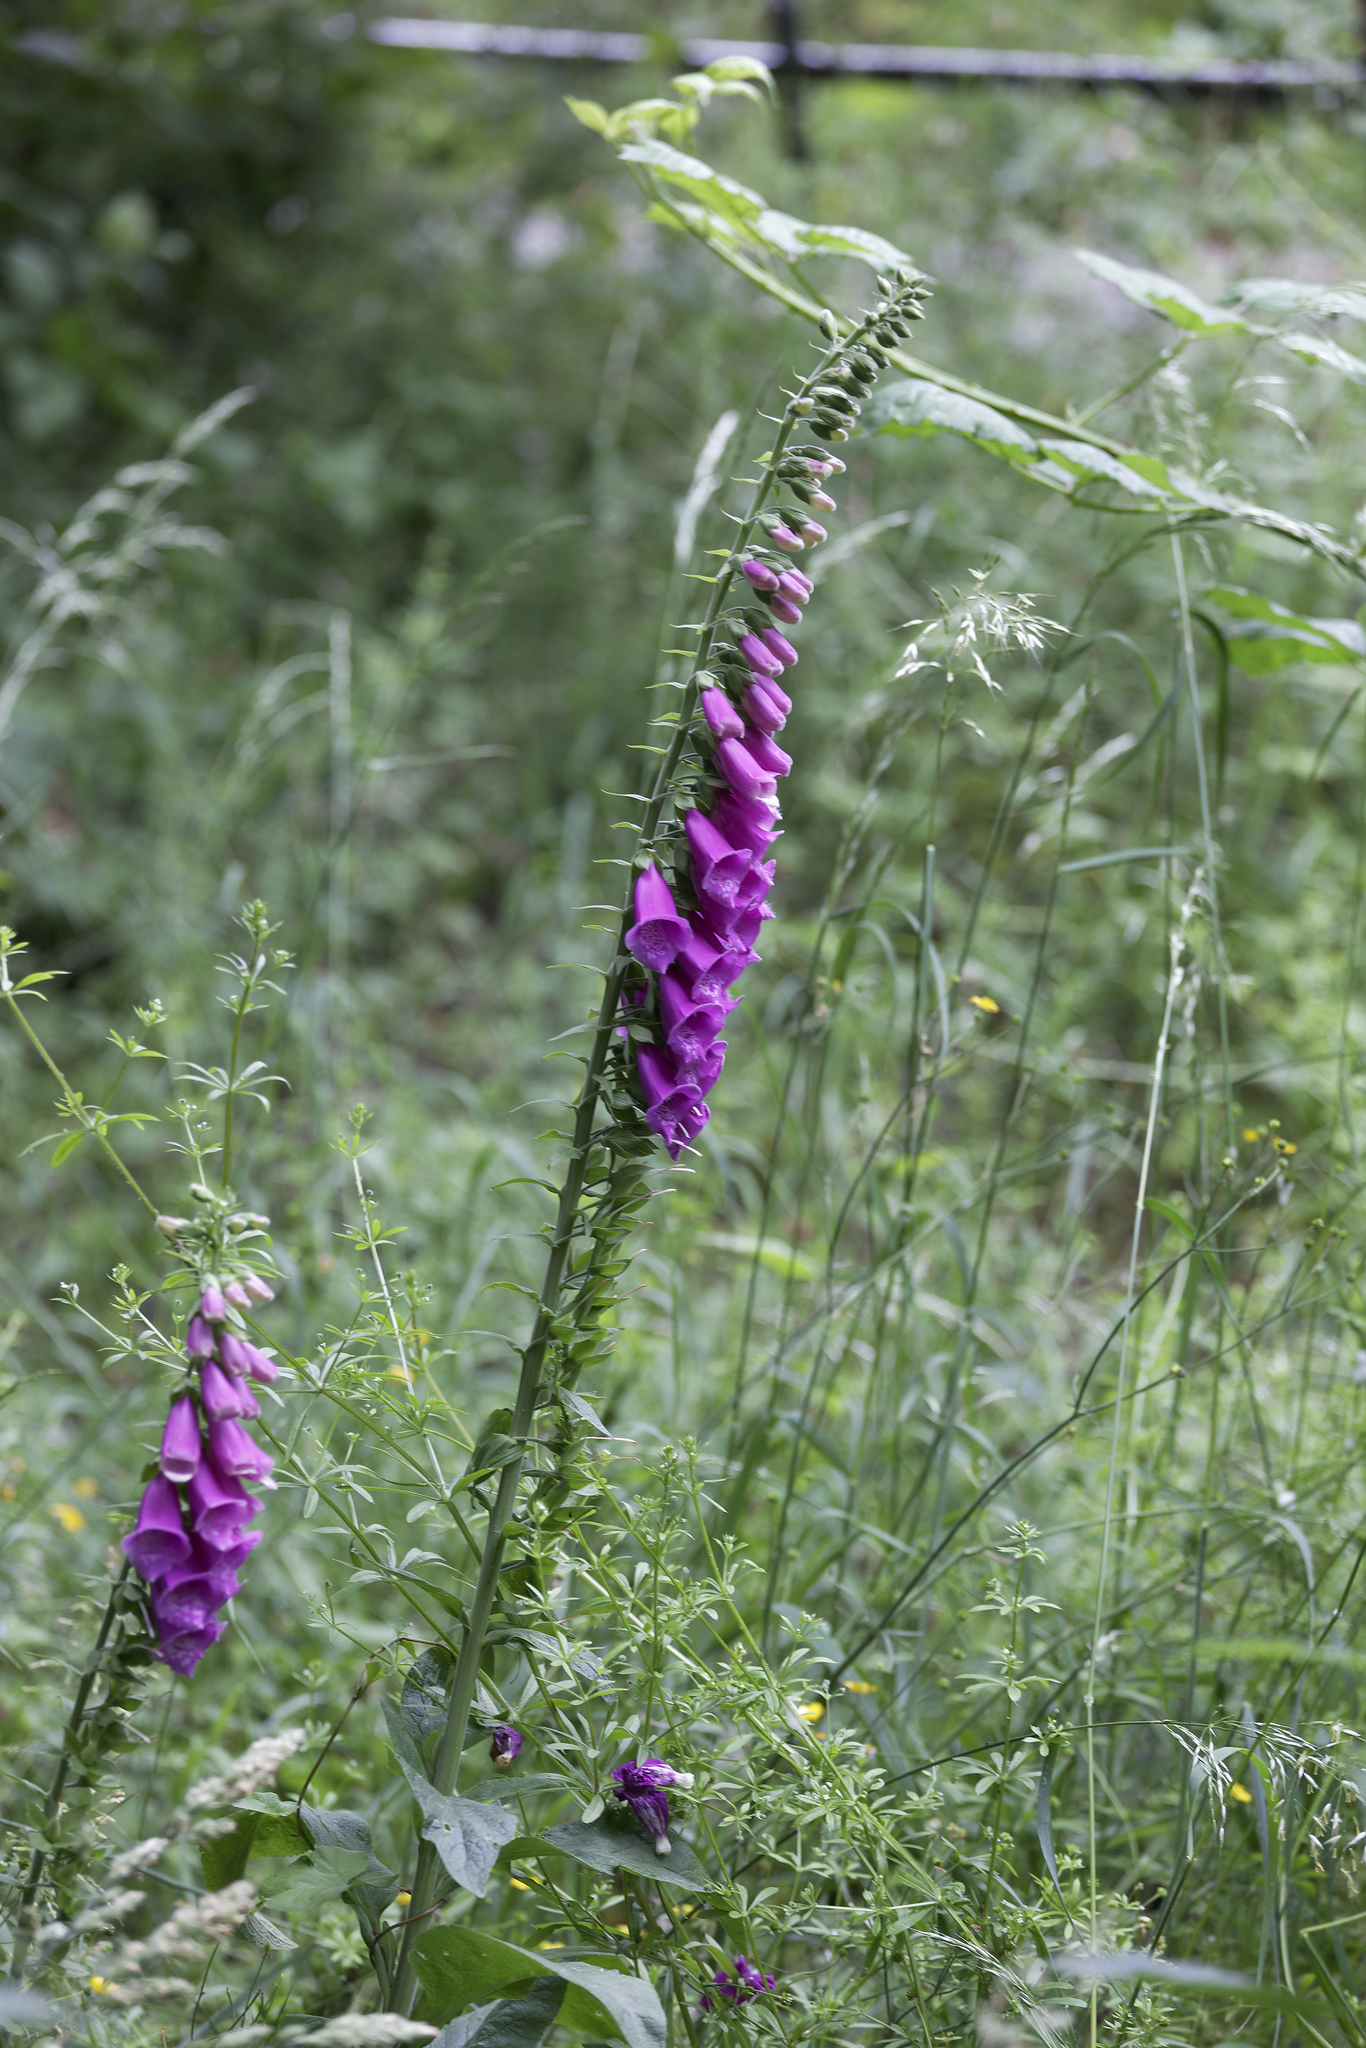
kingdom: Plantae
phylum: Tracheophyta
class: Magnoliopsida
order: Lamiales
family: Plantaginaceae
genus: Digitalis
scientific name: Digitalis purpurea
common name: Foxglove
